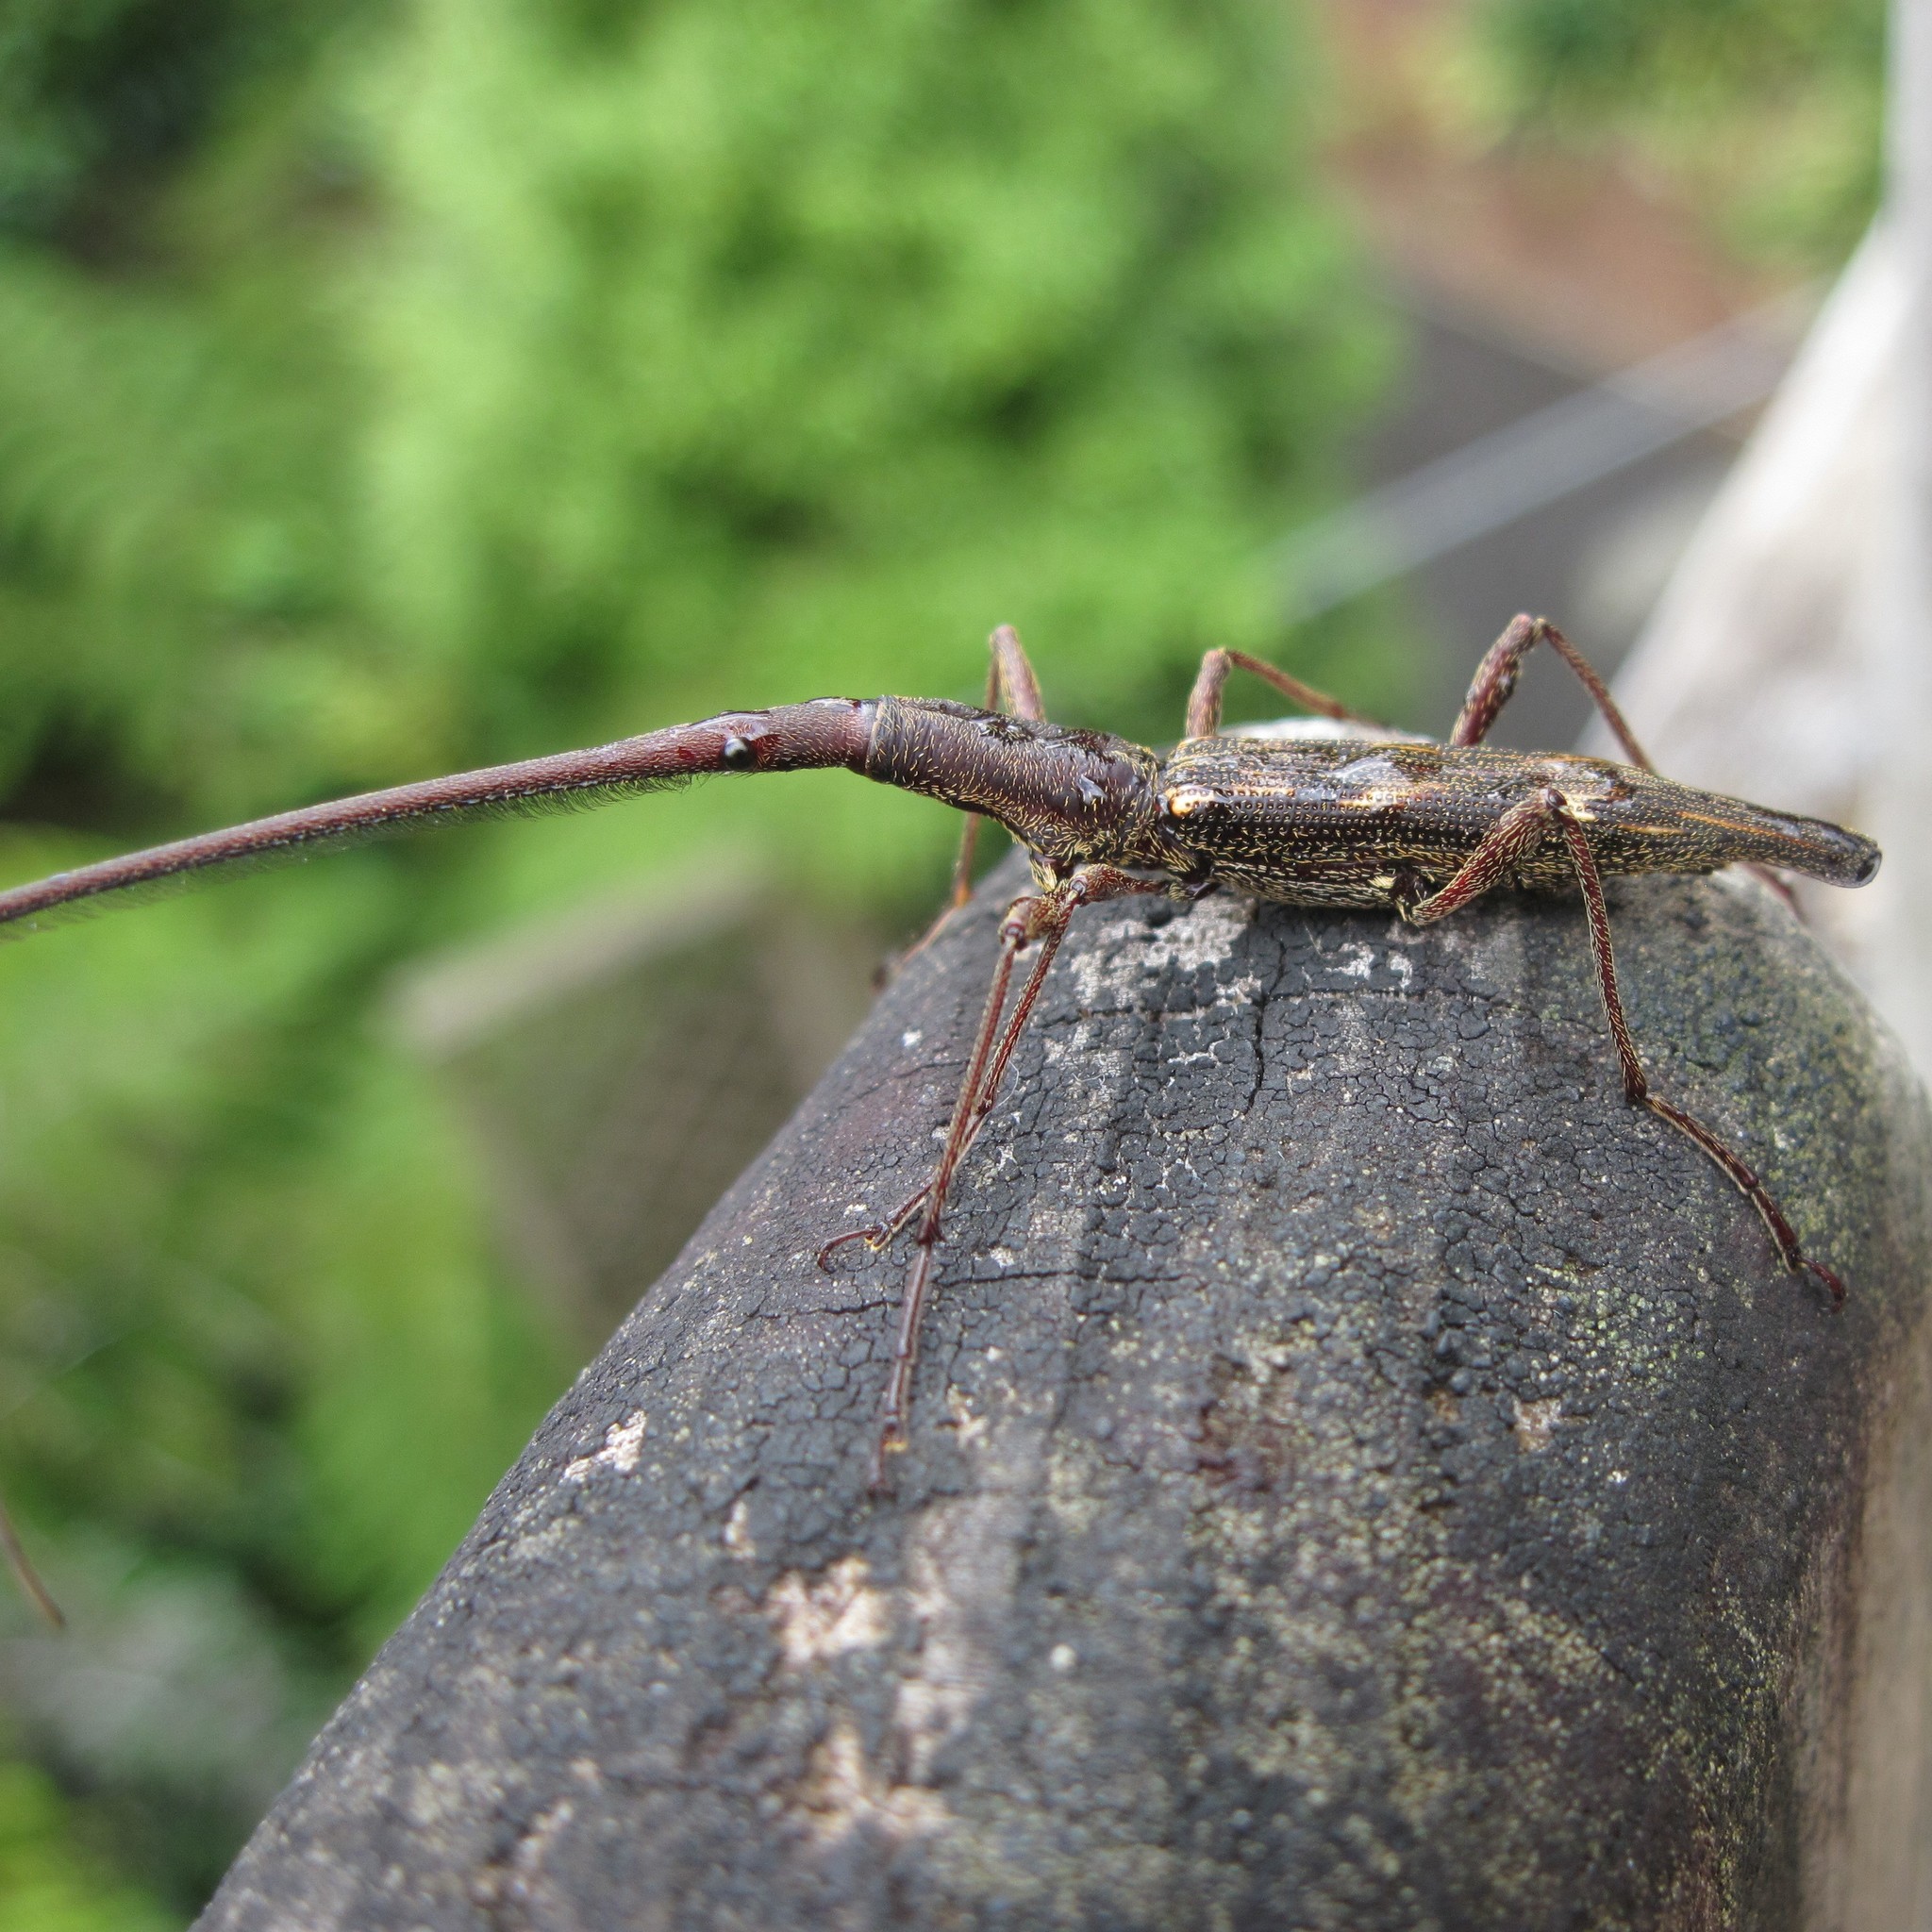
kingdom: Animalia
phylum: Arthropoda
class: Insecta
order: Coleoptera
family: Brentidae
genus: Lasiorhynchus
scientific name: Lasiorhynchus barbicornis
